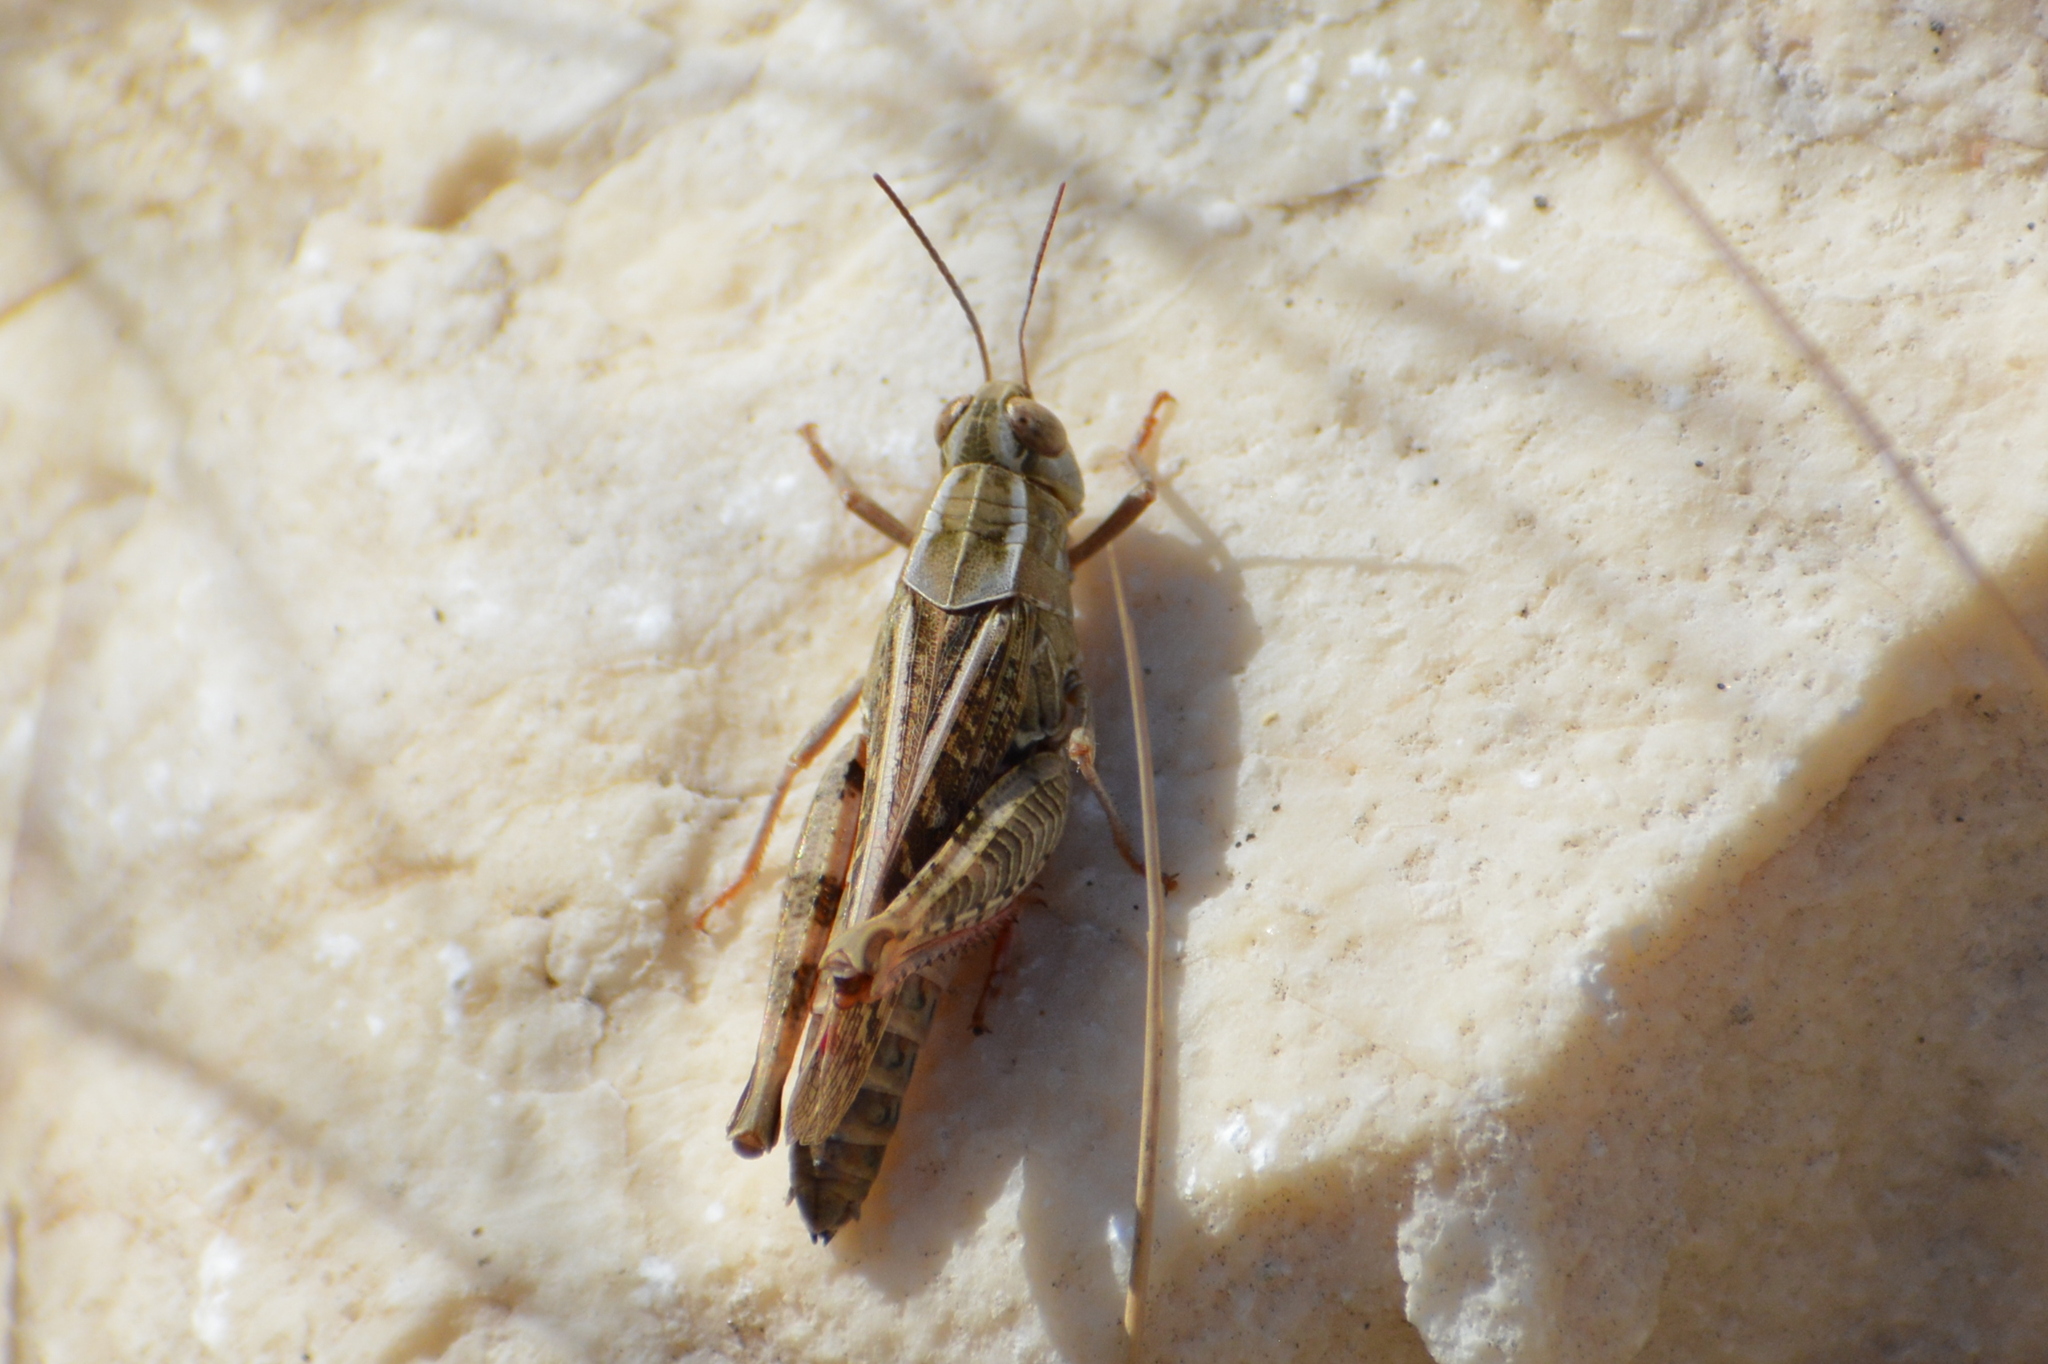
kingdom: Animalia
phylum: Arthropoda
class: Insecta
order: Orthoptera
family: Acrididae
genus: Calliptamus
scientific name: Calliptamus italicus
